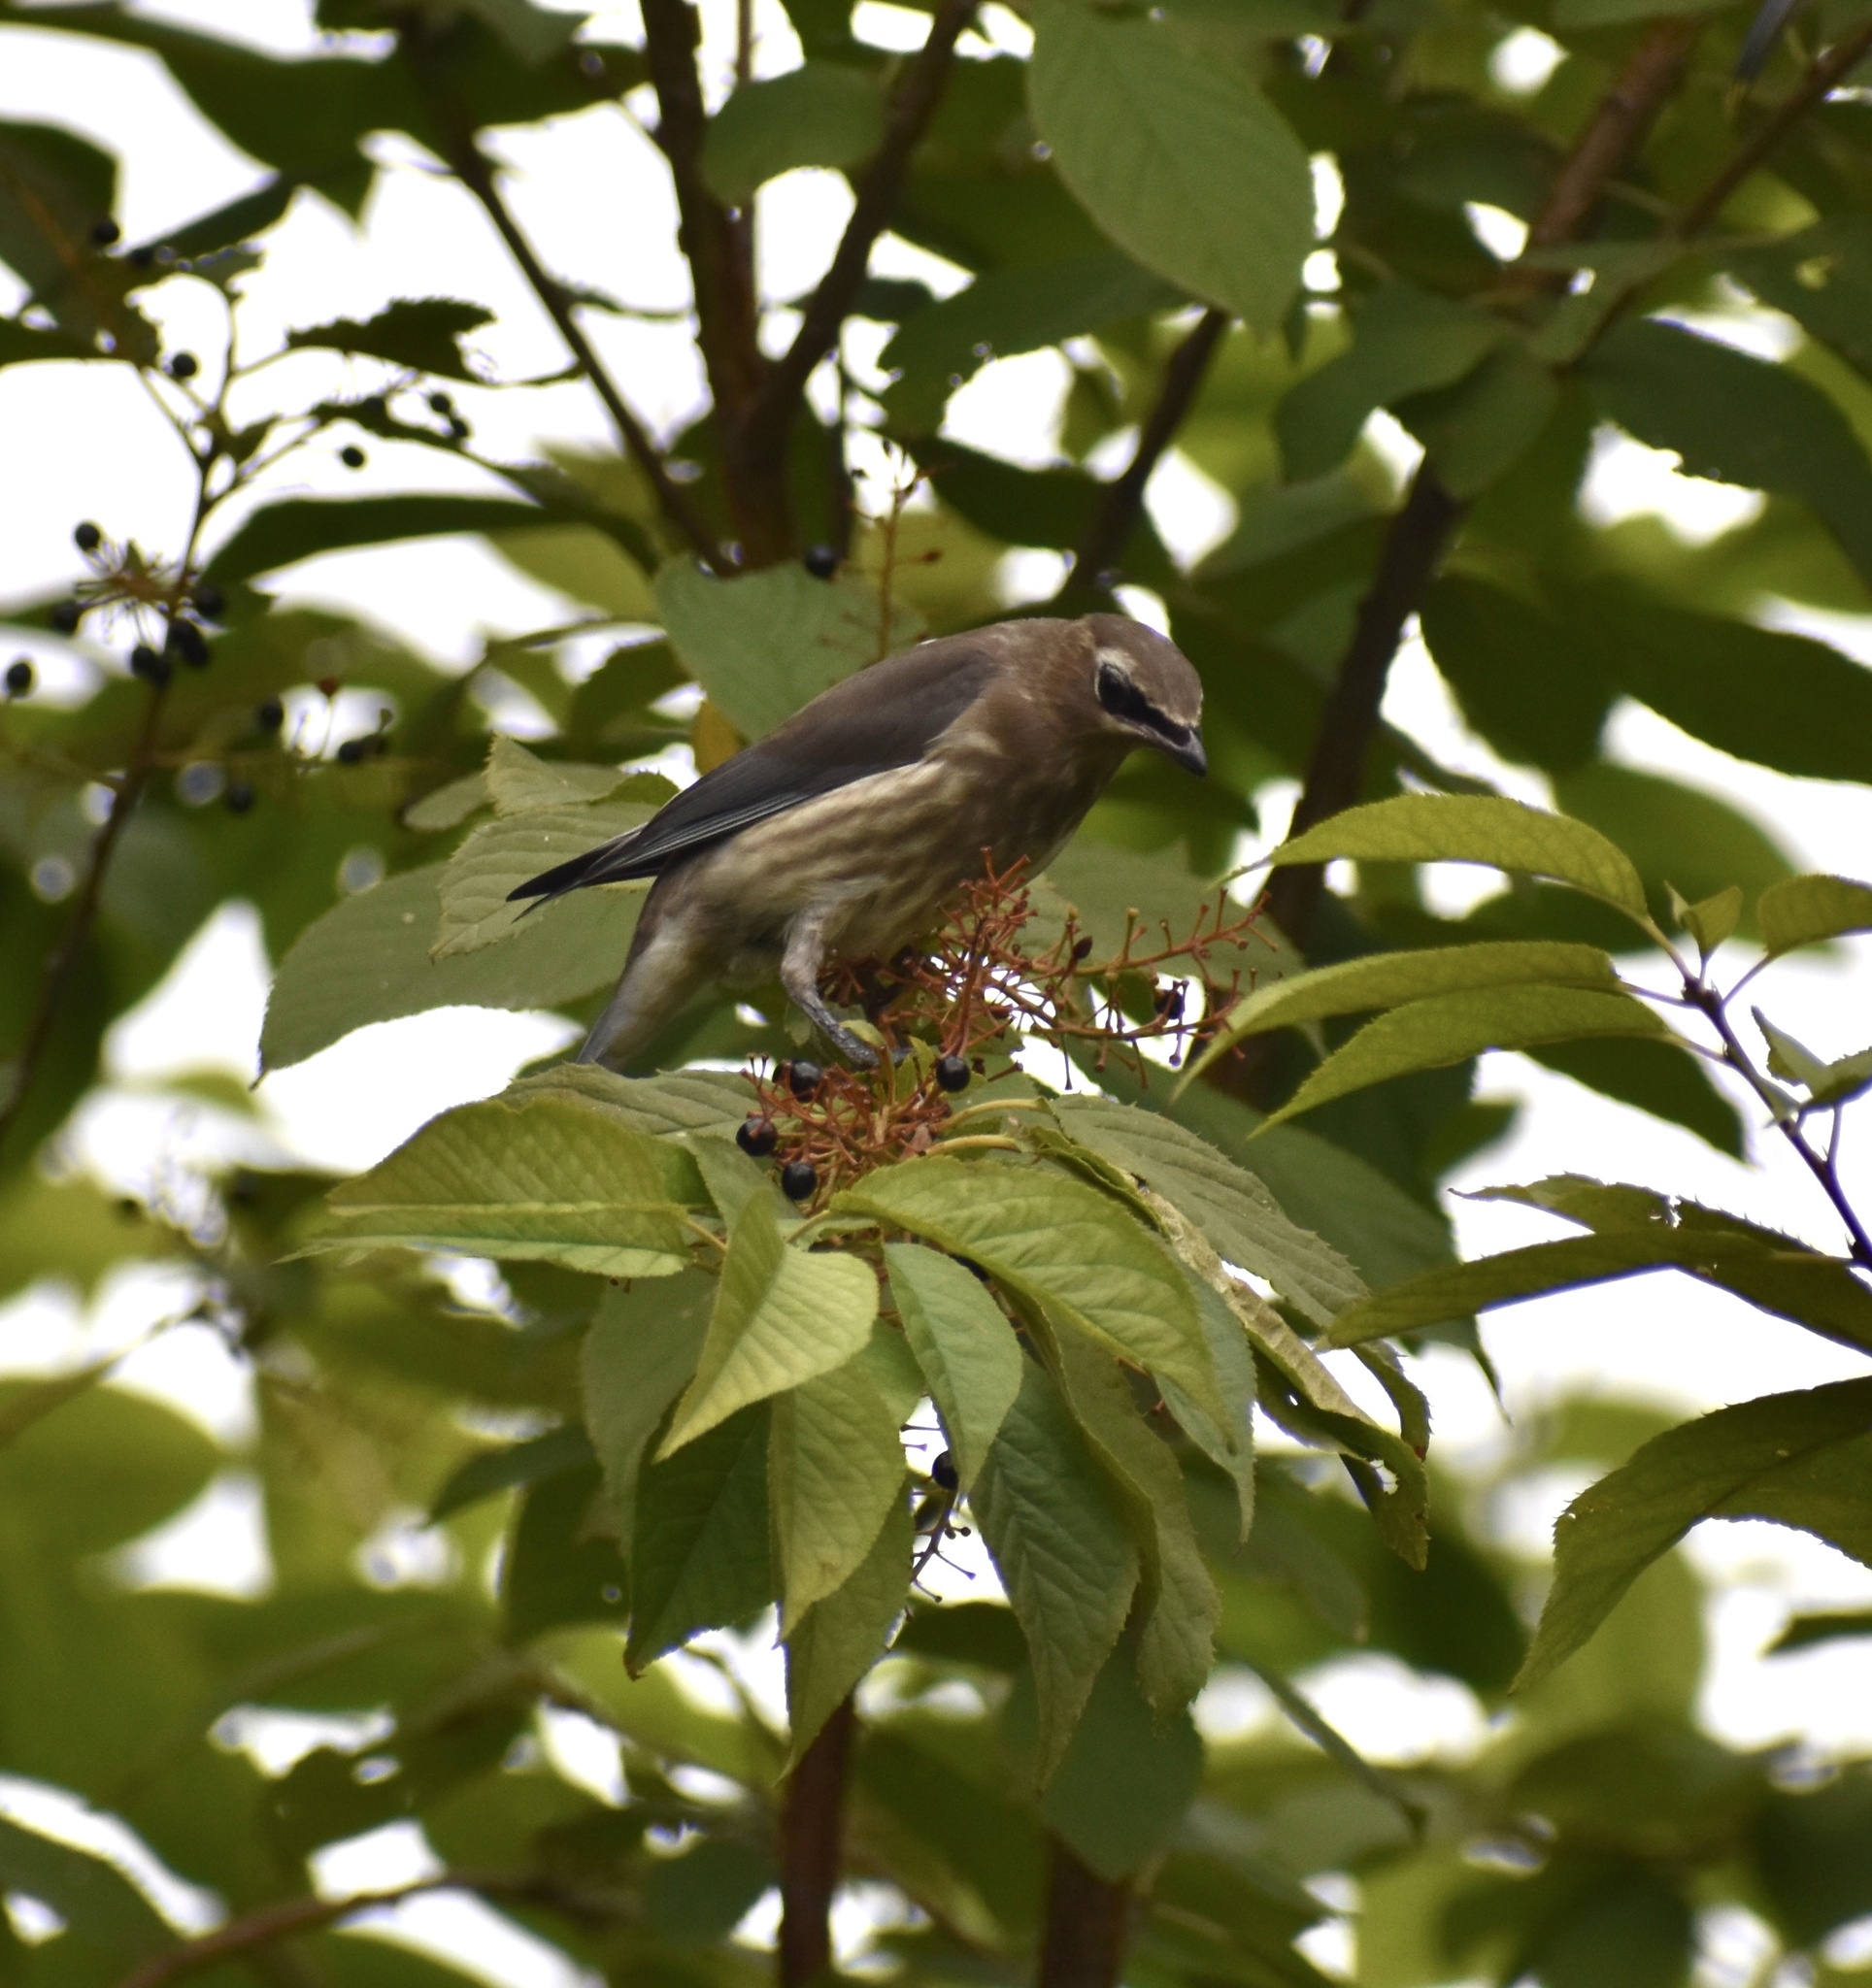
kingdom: Animalia
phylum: Chordata
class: Aves
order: Passeriformes
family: Bombycillidae
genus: Bombycilla
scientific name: Bombycilla cedrorum
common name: Cedar waxwing
